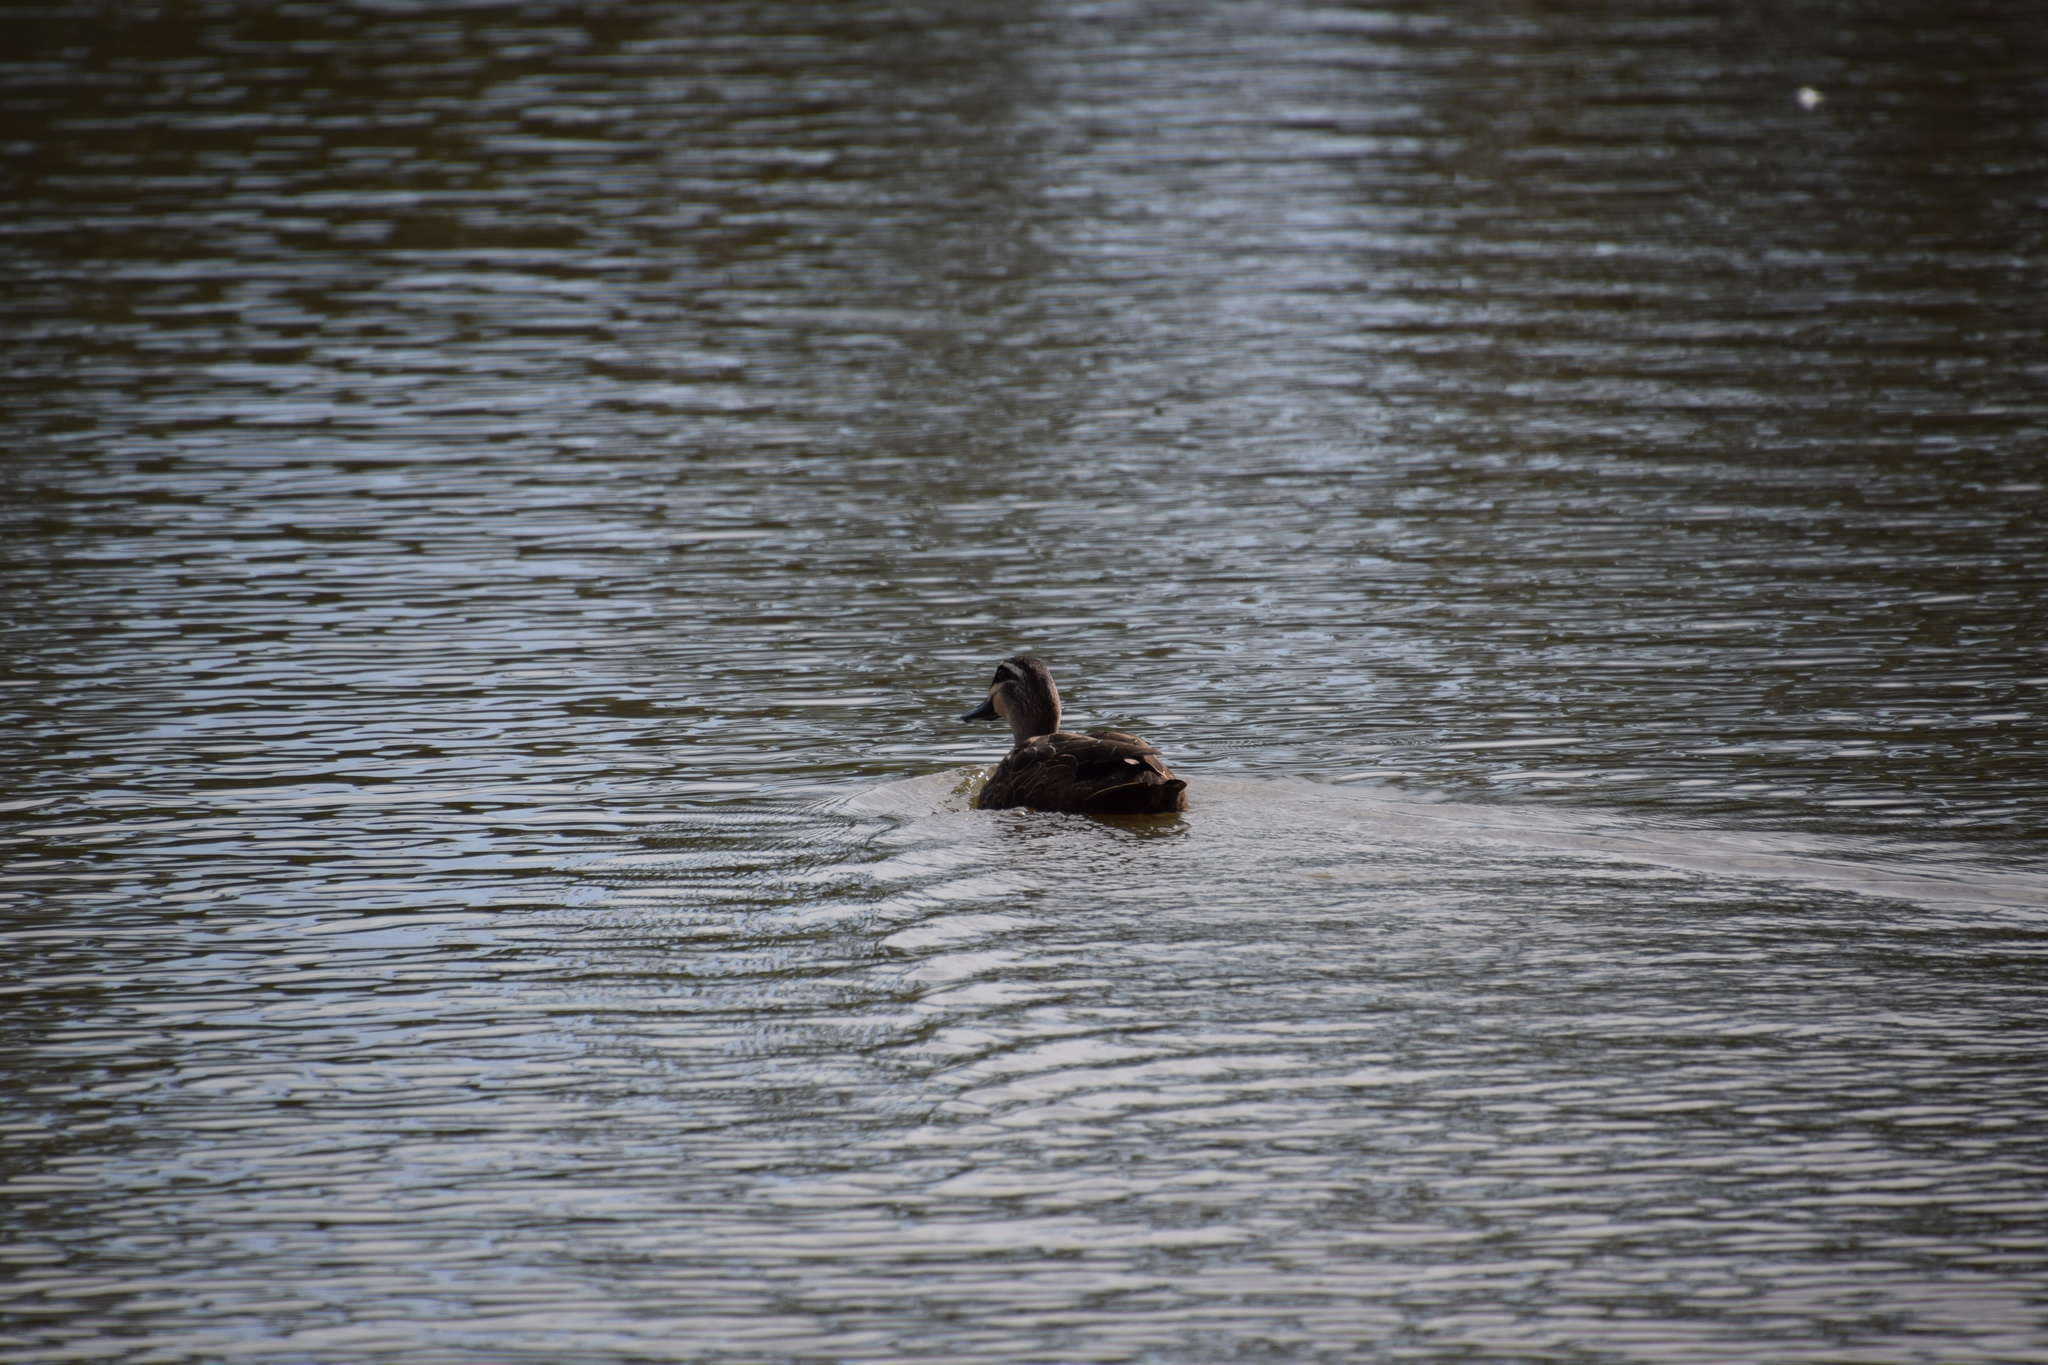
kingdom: Animalia
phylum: Chordata
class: Aves
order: Anseriformes
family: Anatidae
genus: Anas
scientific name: Anas superciliosa
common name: Pacific black duck
